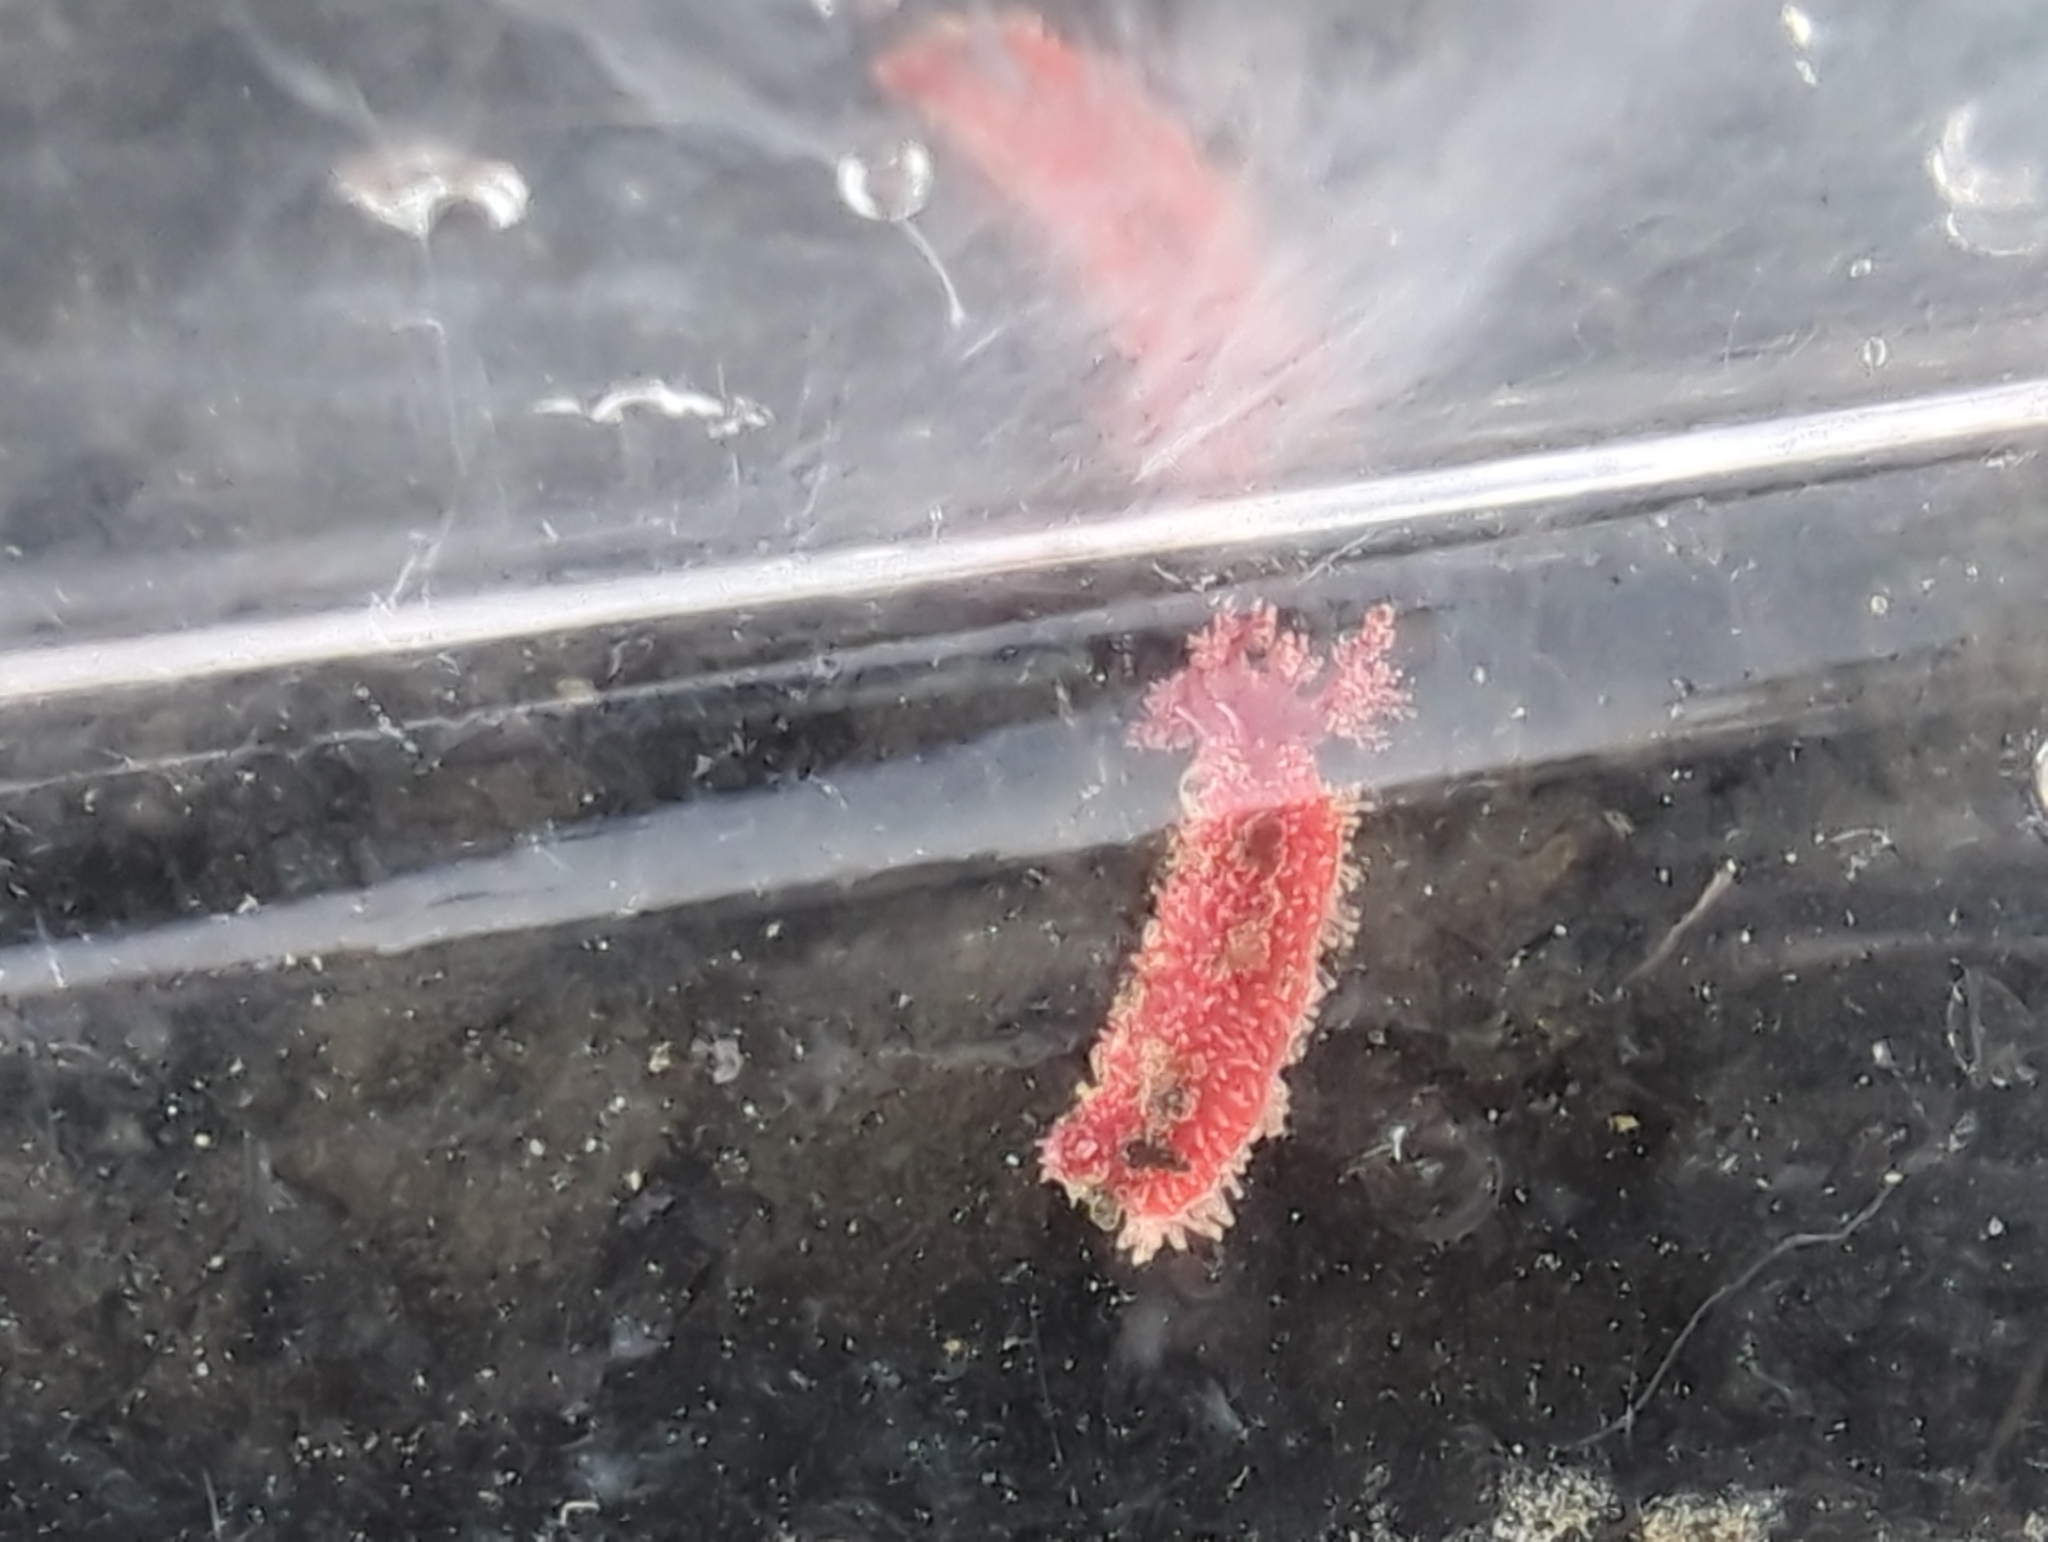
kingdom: Animalia
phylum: Echinodermata
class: Holothuroidea
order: Dendrochirotida
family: Psolidae
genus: Lissothuria
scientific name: Lissothuria nutriens
